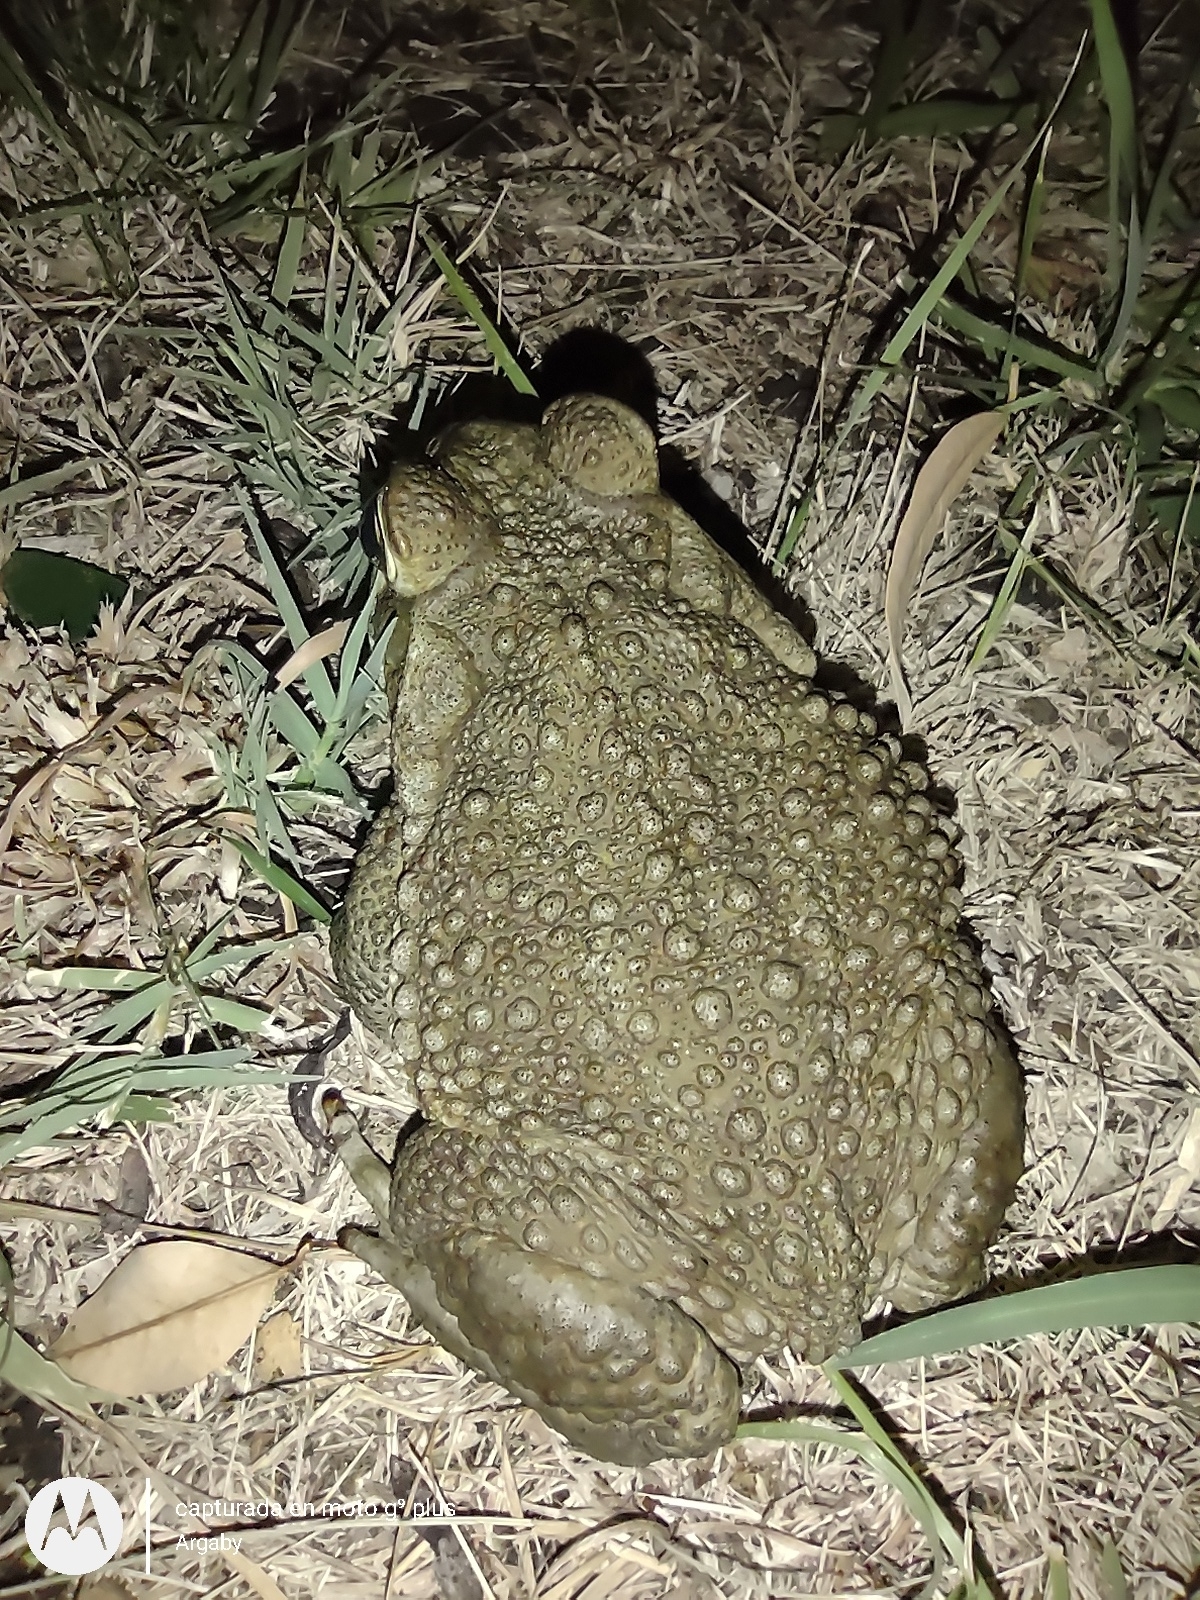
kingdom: Animalia
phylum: Chordata
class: Amphibia
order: Anura
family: Bufonidae
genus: Rhinella
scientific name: Rhinella arenarum
